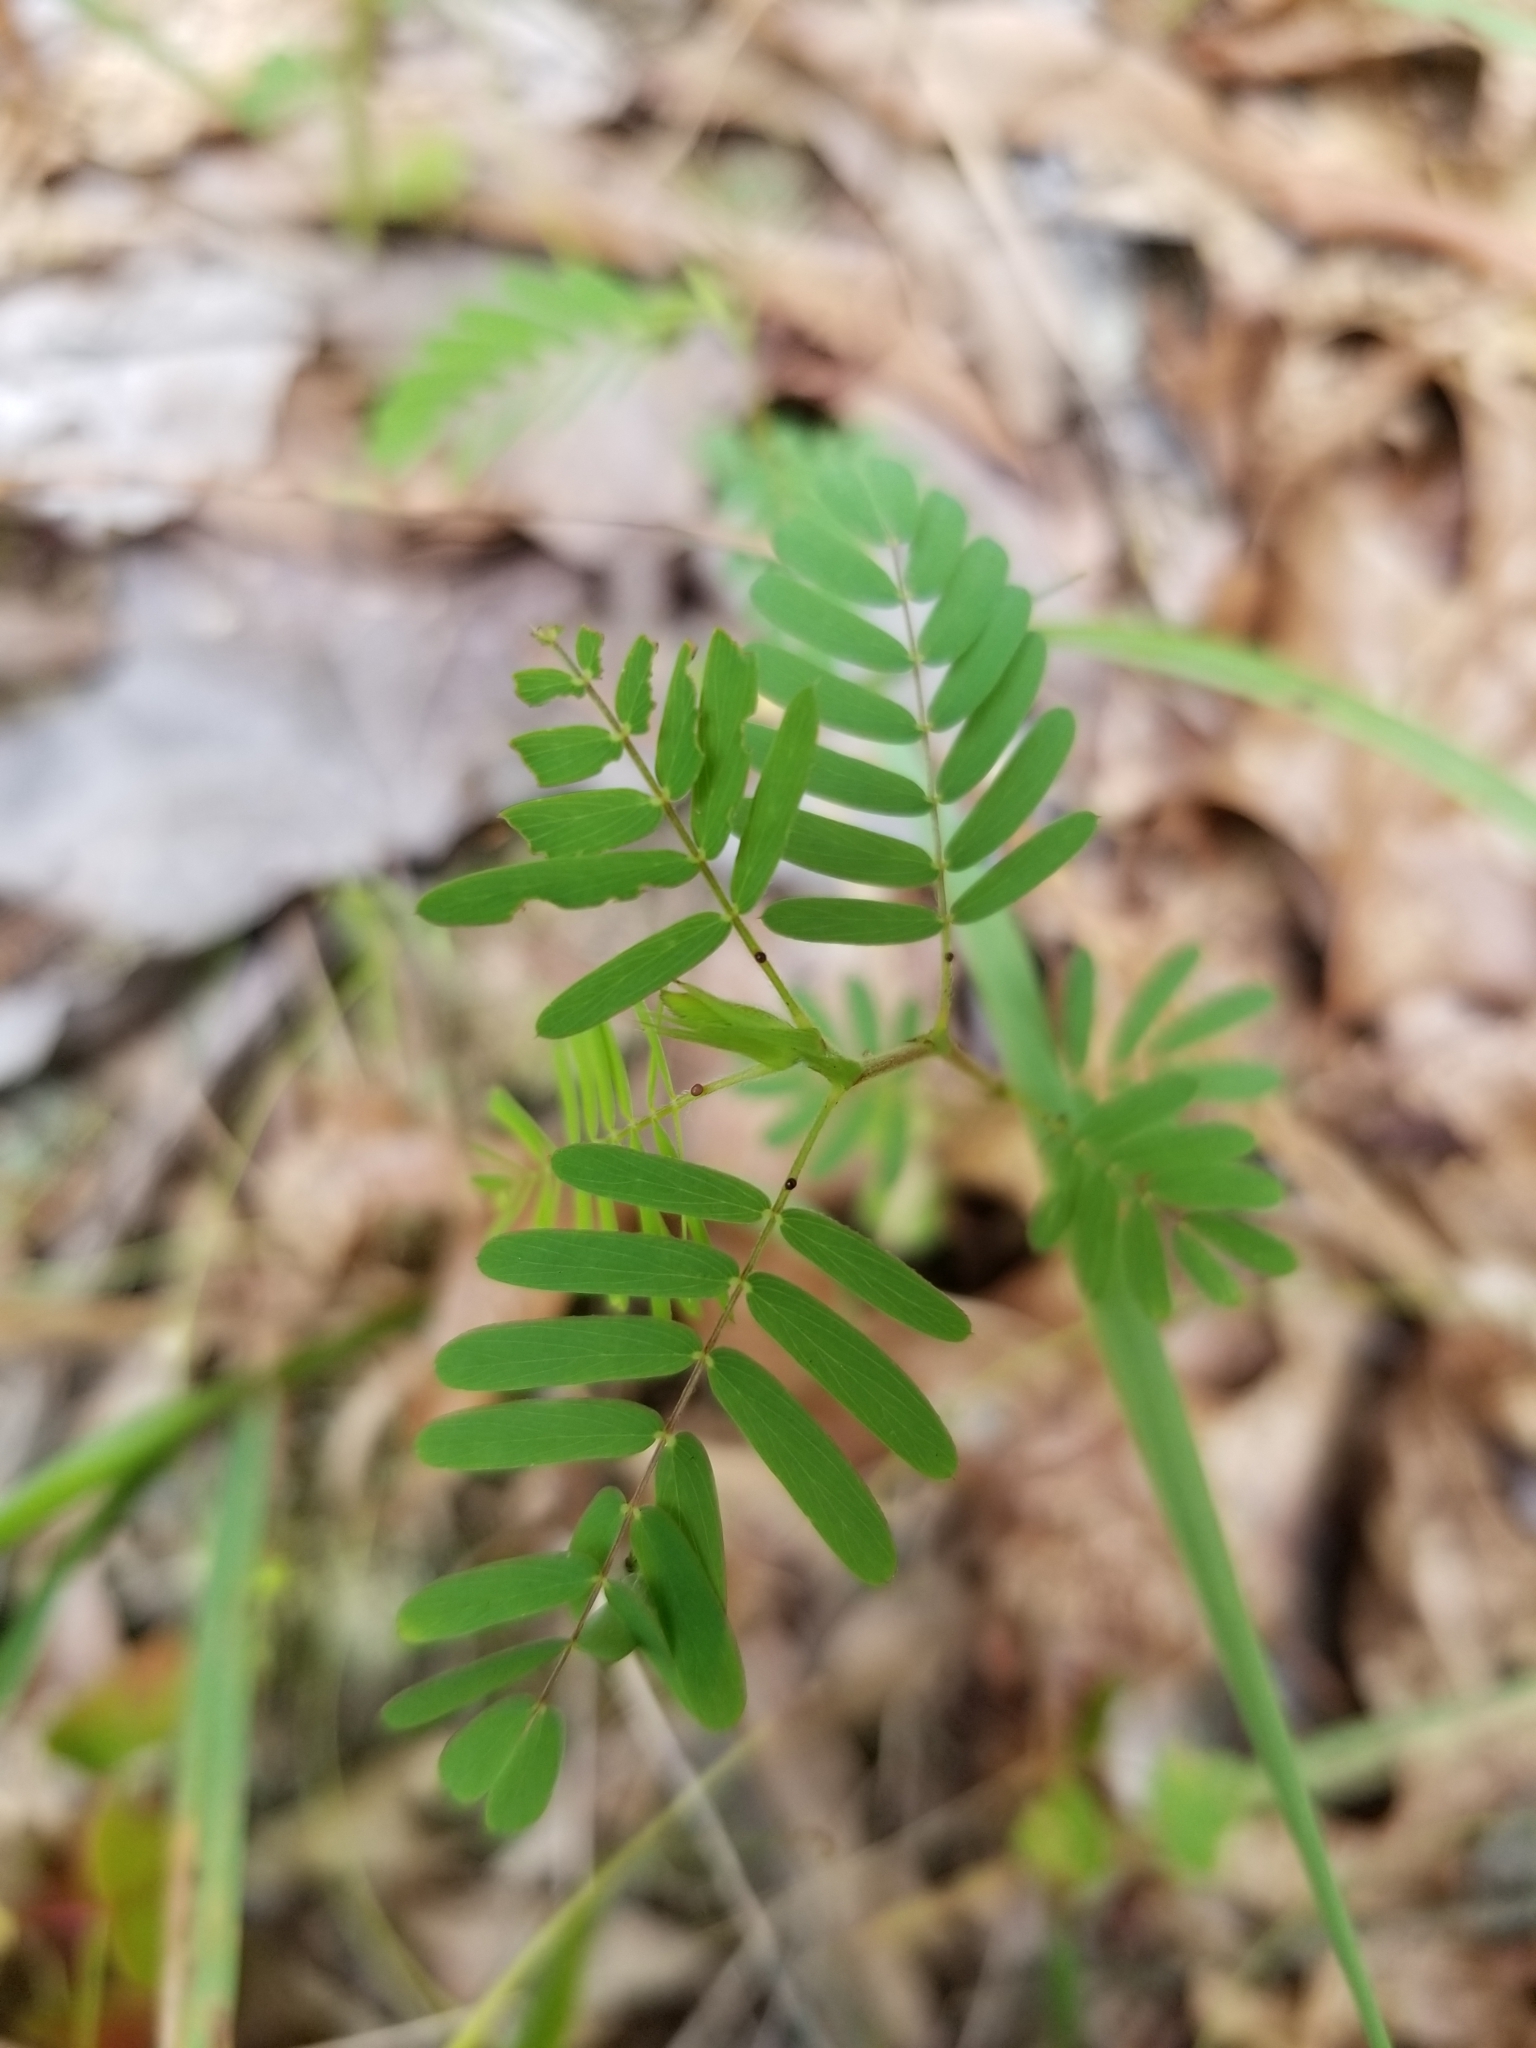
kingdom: Plantae
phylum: Tracheophyta
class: Magnoliopsida
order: Fabales
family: Fabaceae
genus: Chamaecrista
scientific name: Chamaecrista fasciculata
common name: Golden cassia
